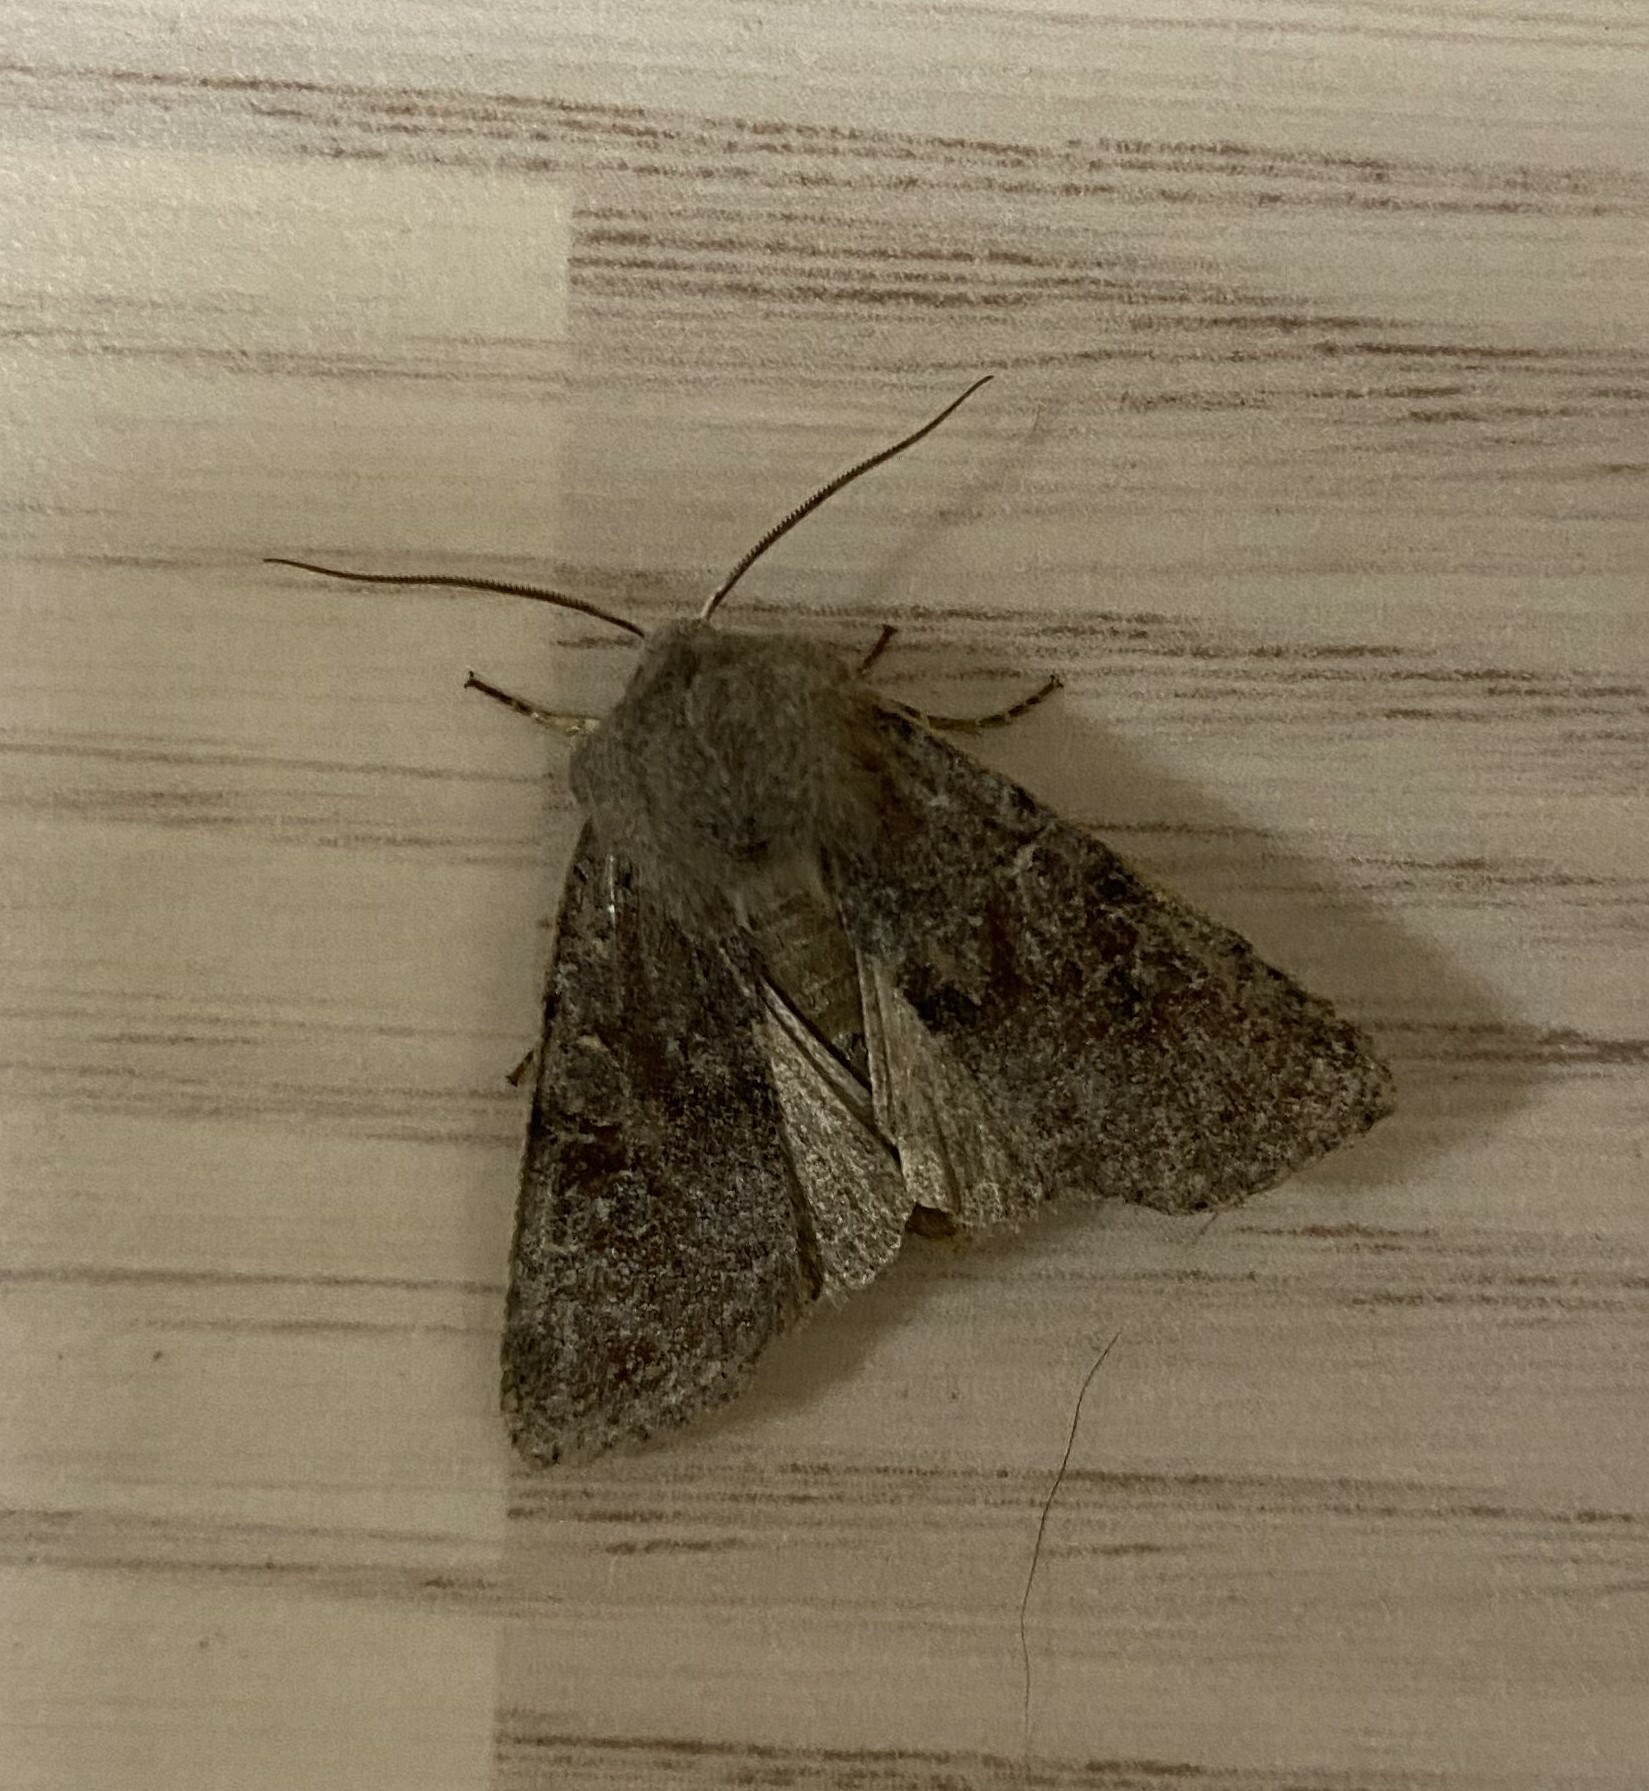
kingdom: Animalia
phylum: Arthropoda
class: Insecta
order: Lepidoptera
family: Noctuidae
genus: Orthosia
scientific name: Orthosia incerta
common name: Clouded drab
